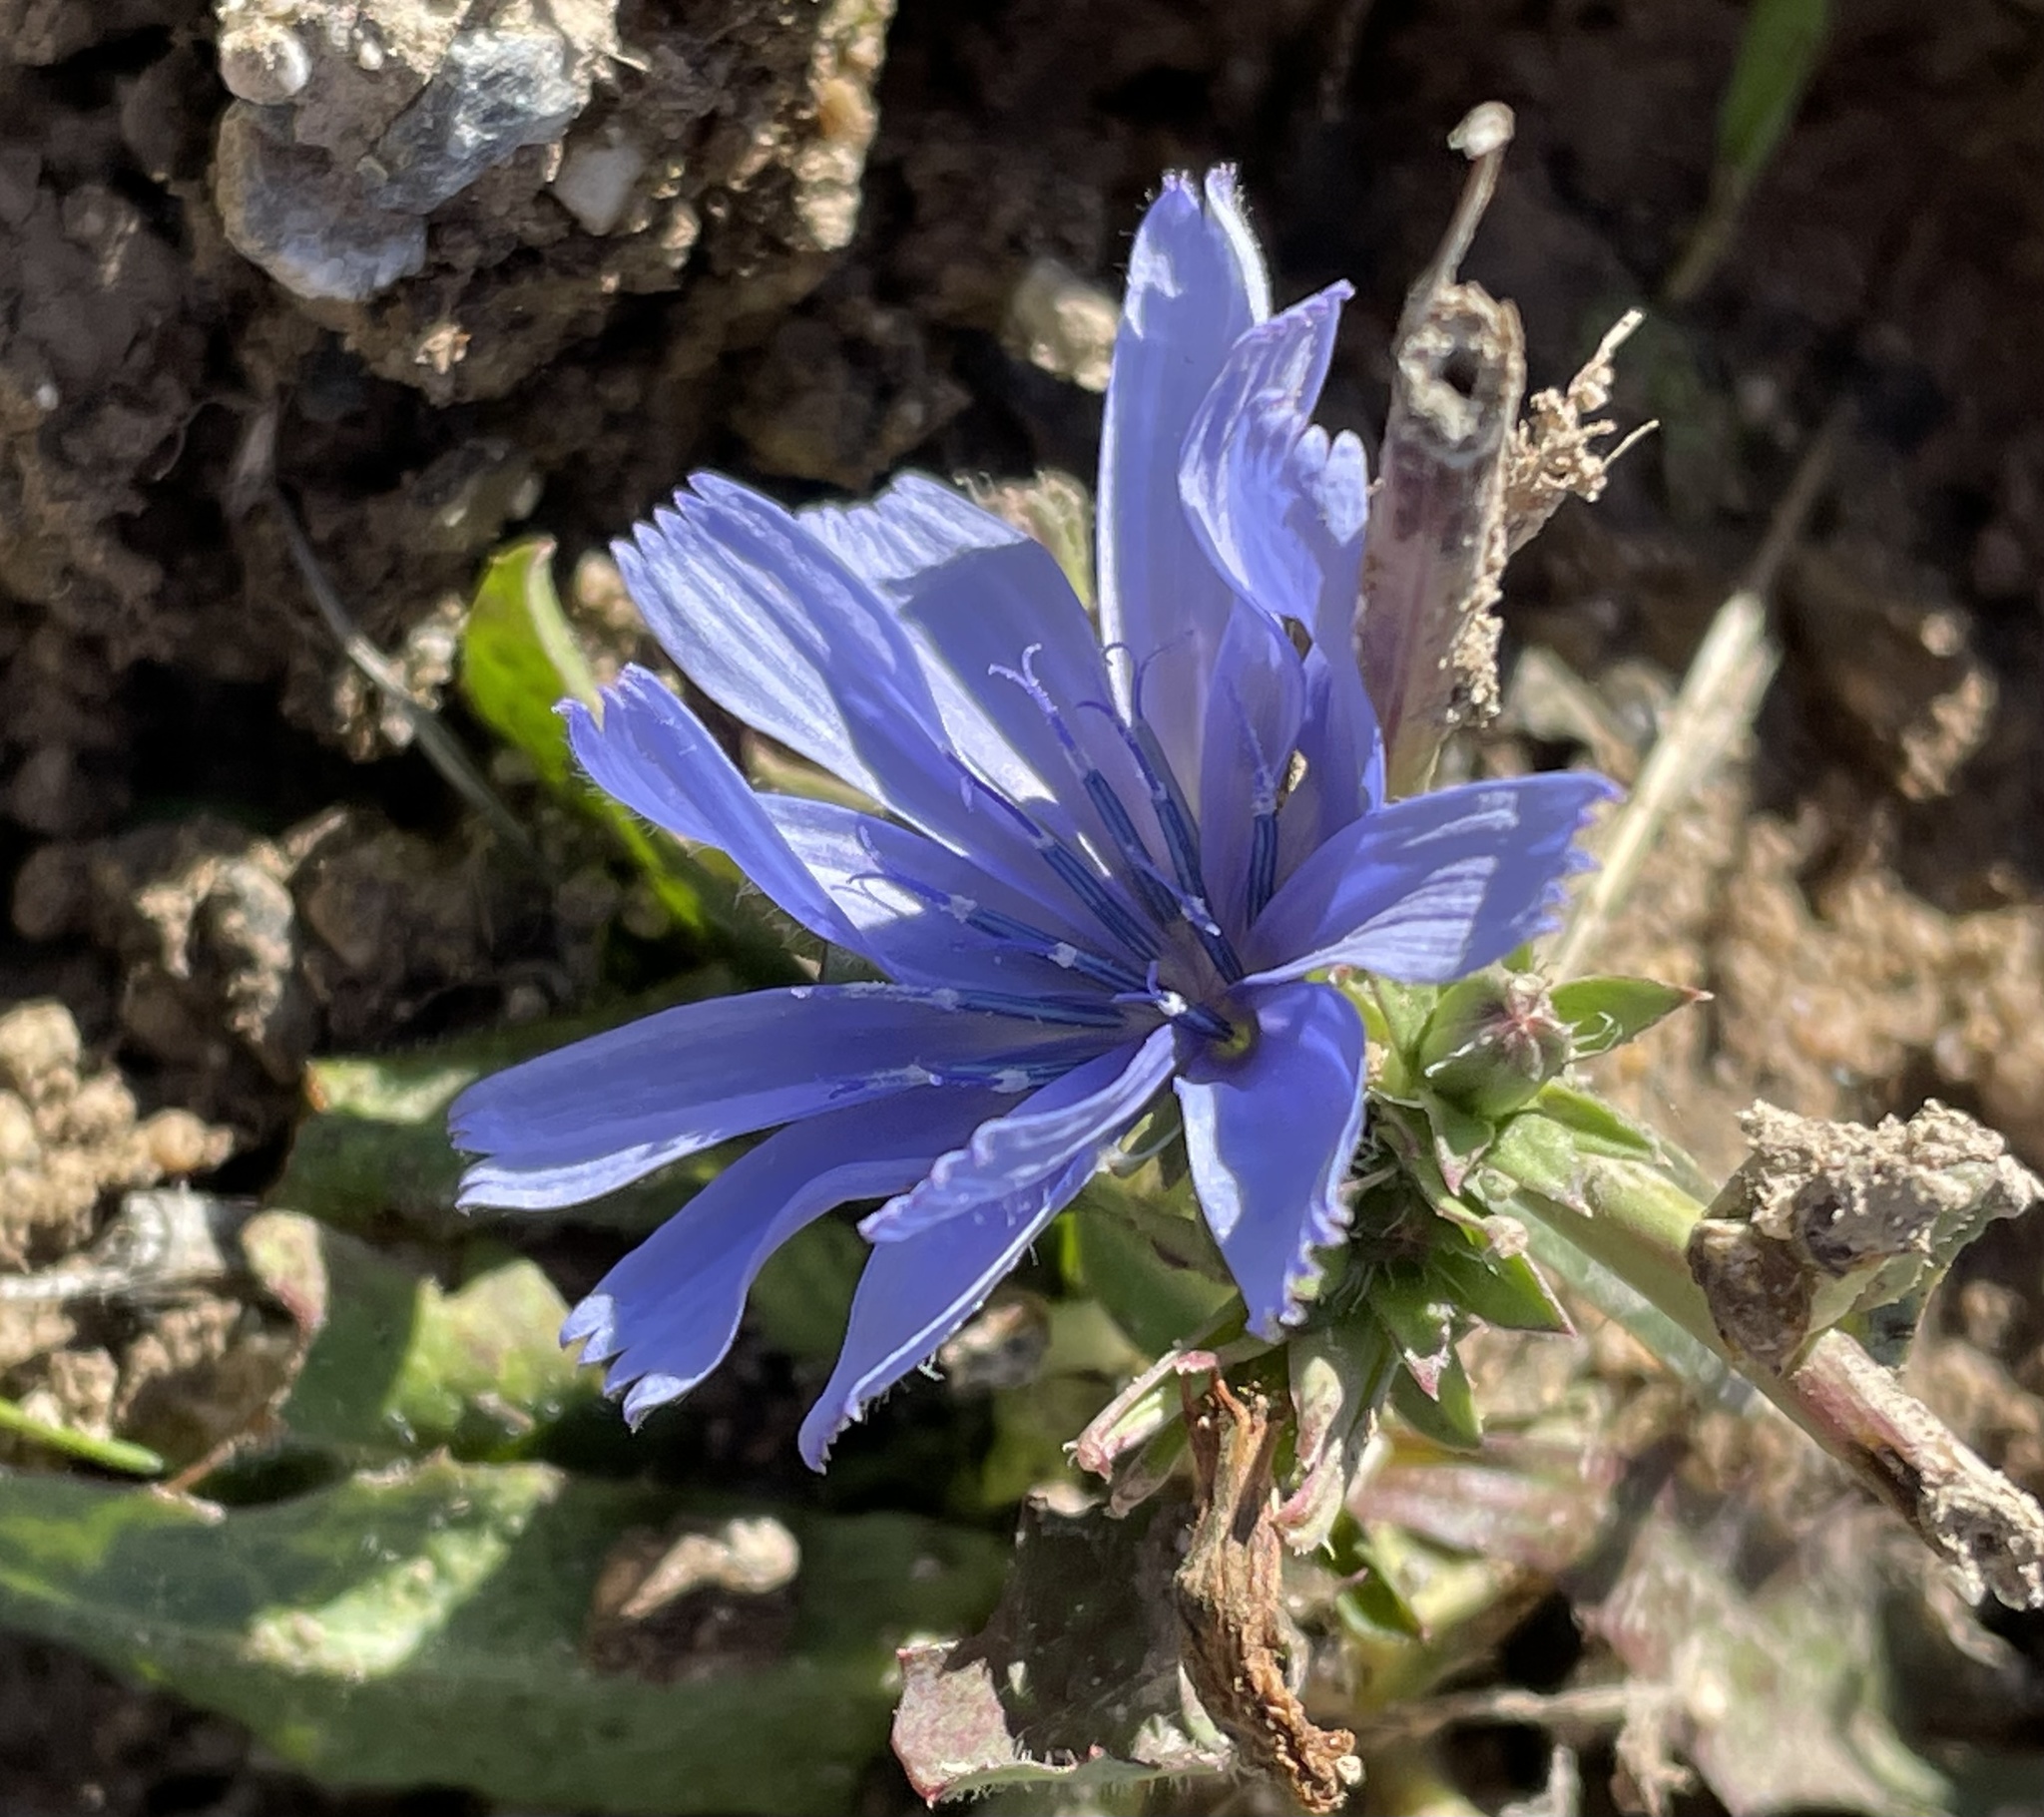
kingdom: Plantae
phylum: Tracheophyta
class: Magnoliopsida
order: Asterales
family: Asteraceae
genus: Cichorium
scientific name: Cichorium intybus
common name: Chicory
